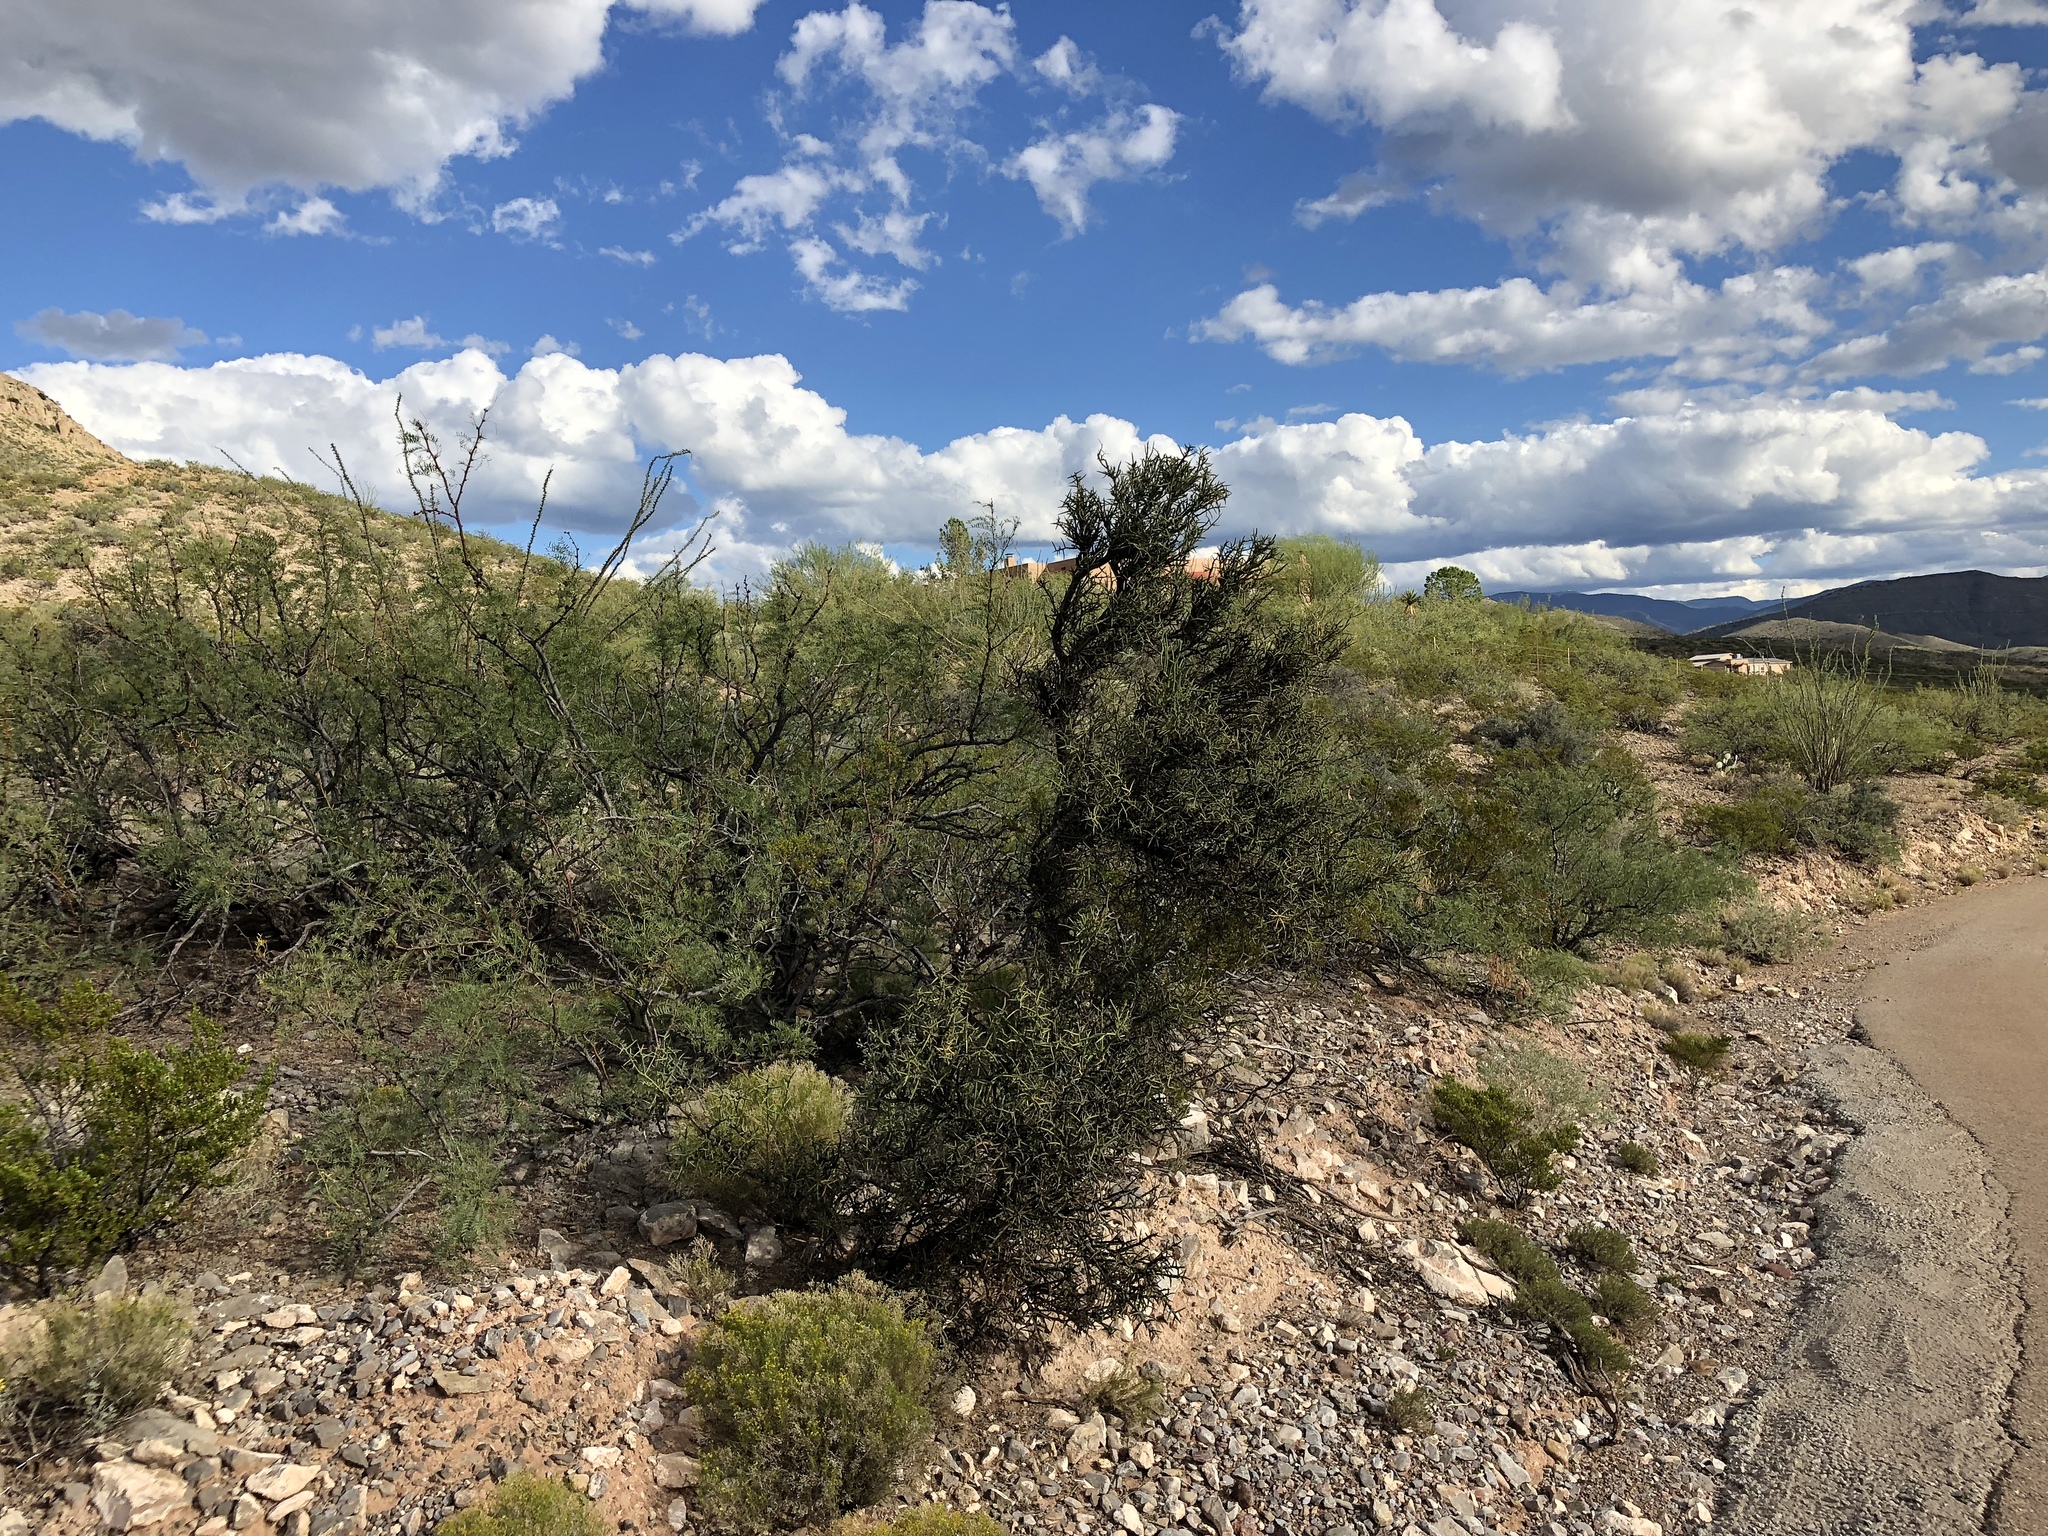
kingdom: Plantae
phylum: Tracheophyta
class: Magnoliopsida
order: Brassicales
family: Koeberliniaceae
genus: Koeberlinia
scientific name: Koeberlinia spinosa
